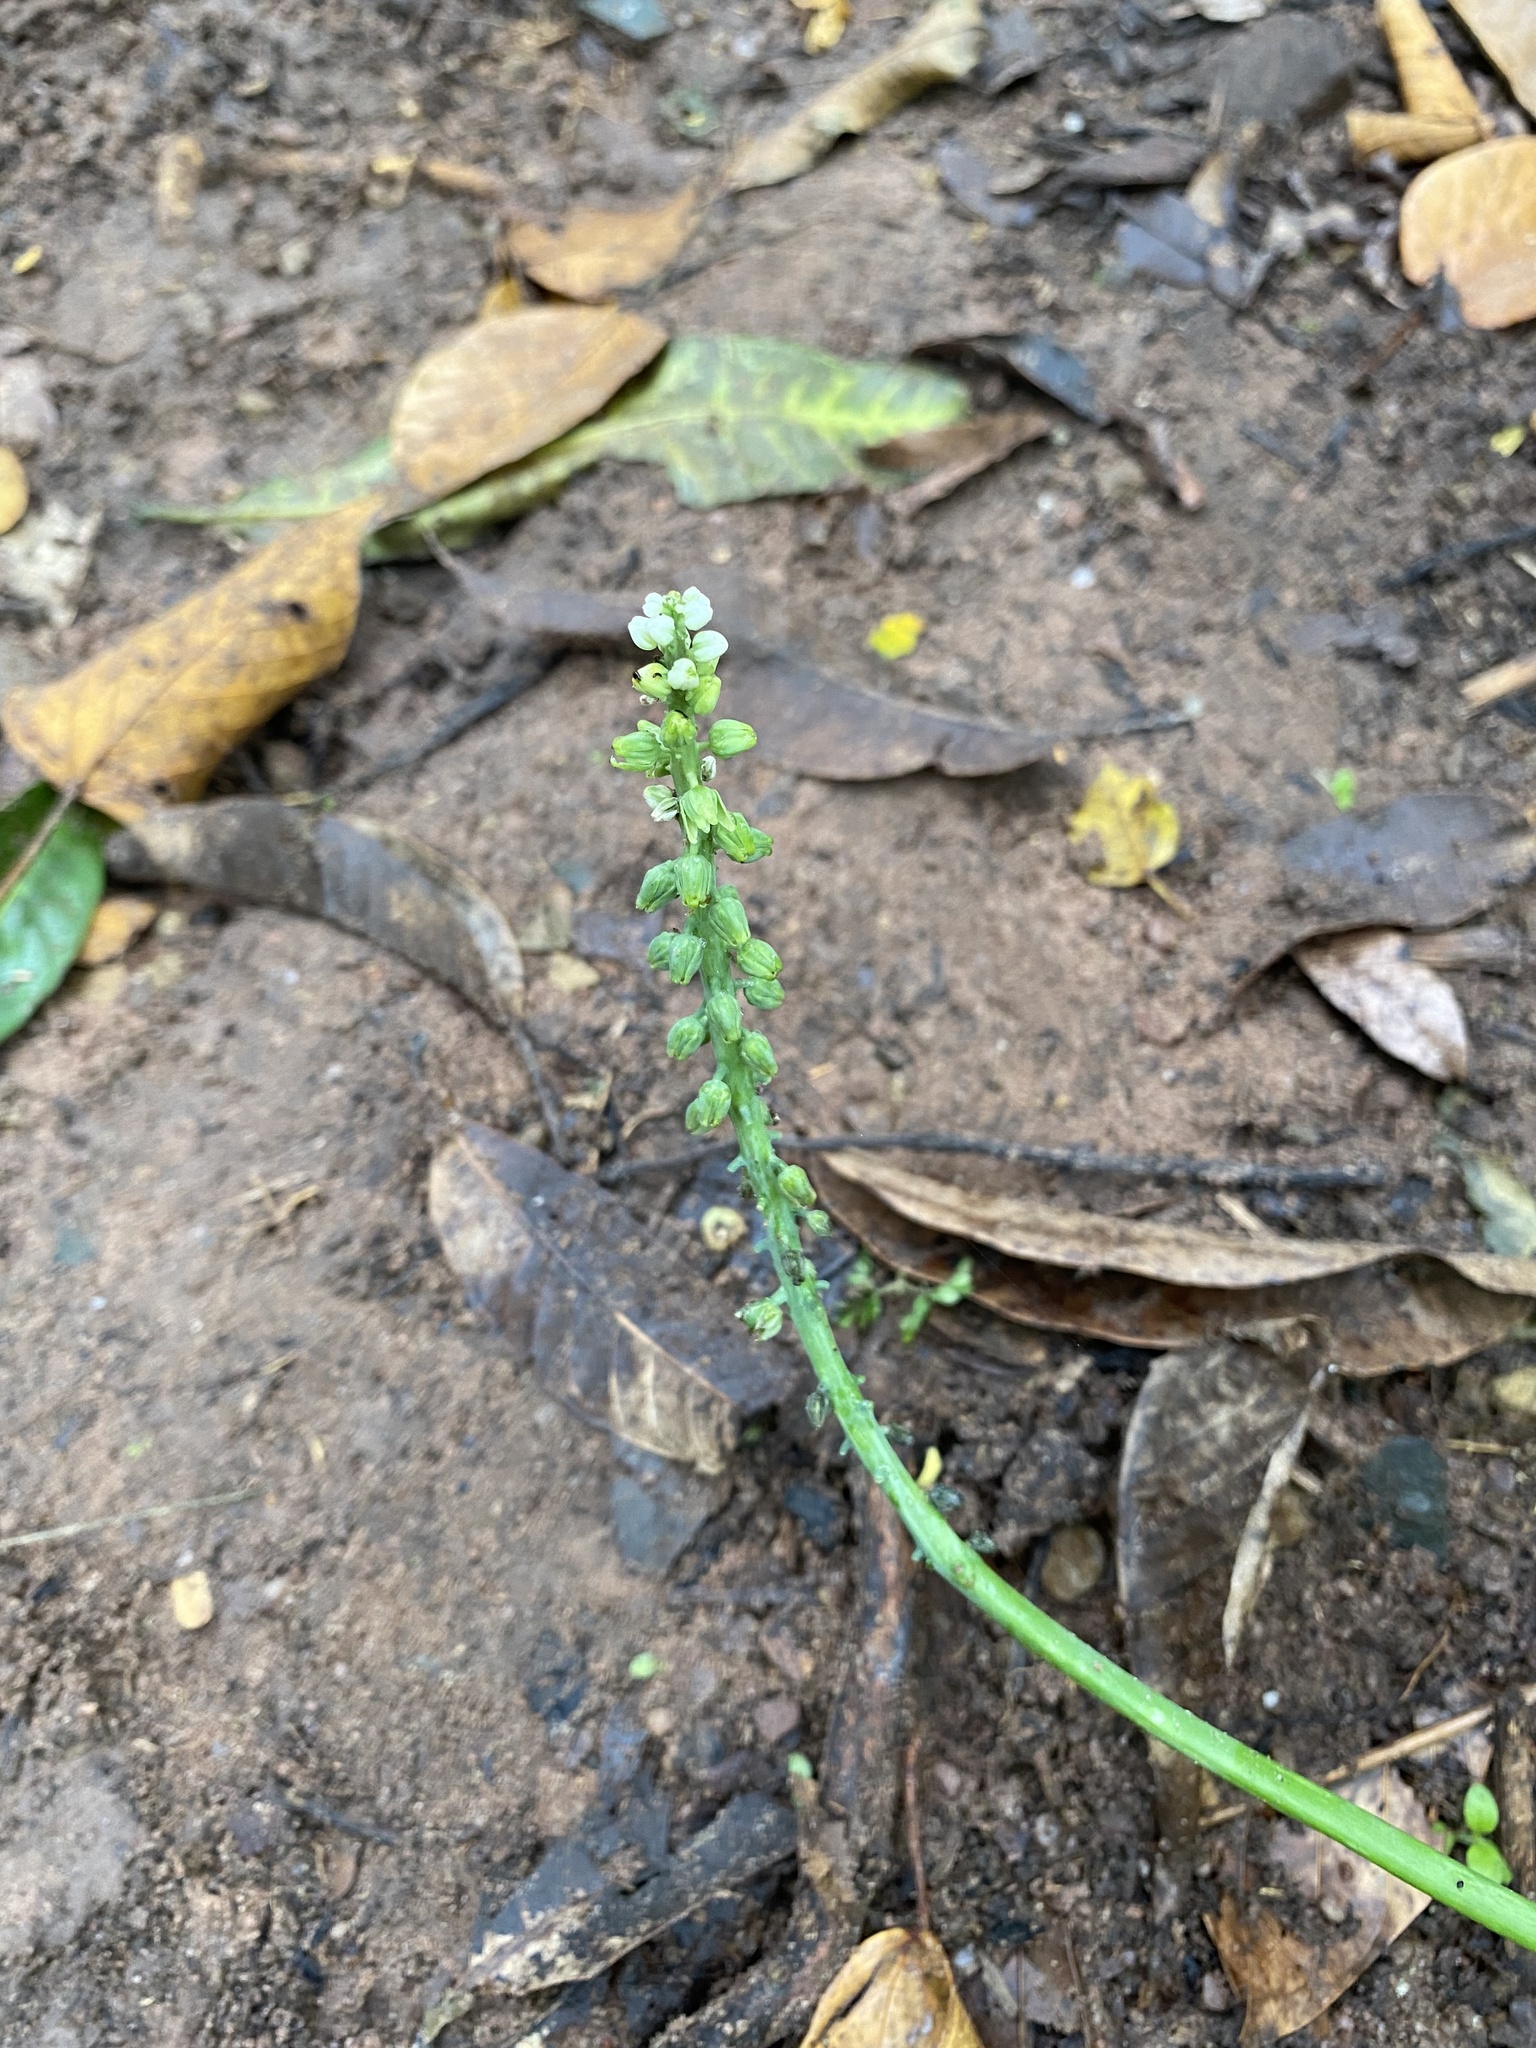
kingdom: Plantae
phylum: Tracheophyta
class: Liliopsida
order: Asparagales
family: Asparagaceae
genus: Drimiopsis
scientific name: Drimiopsis maculata
